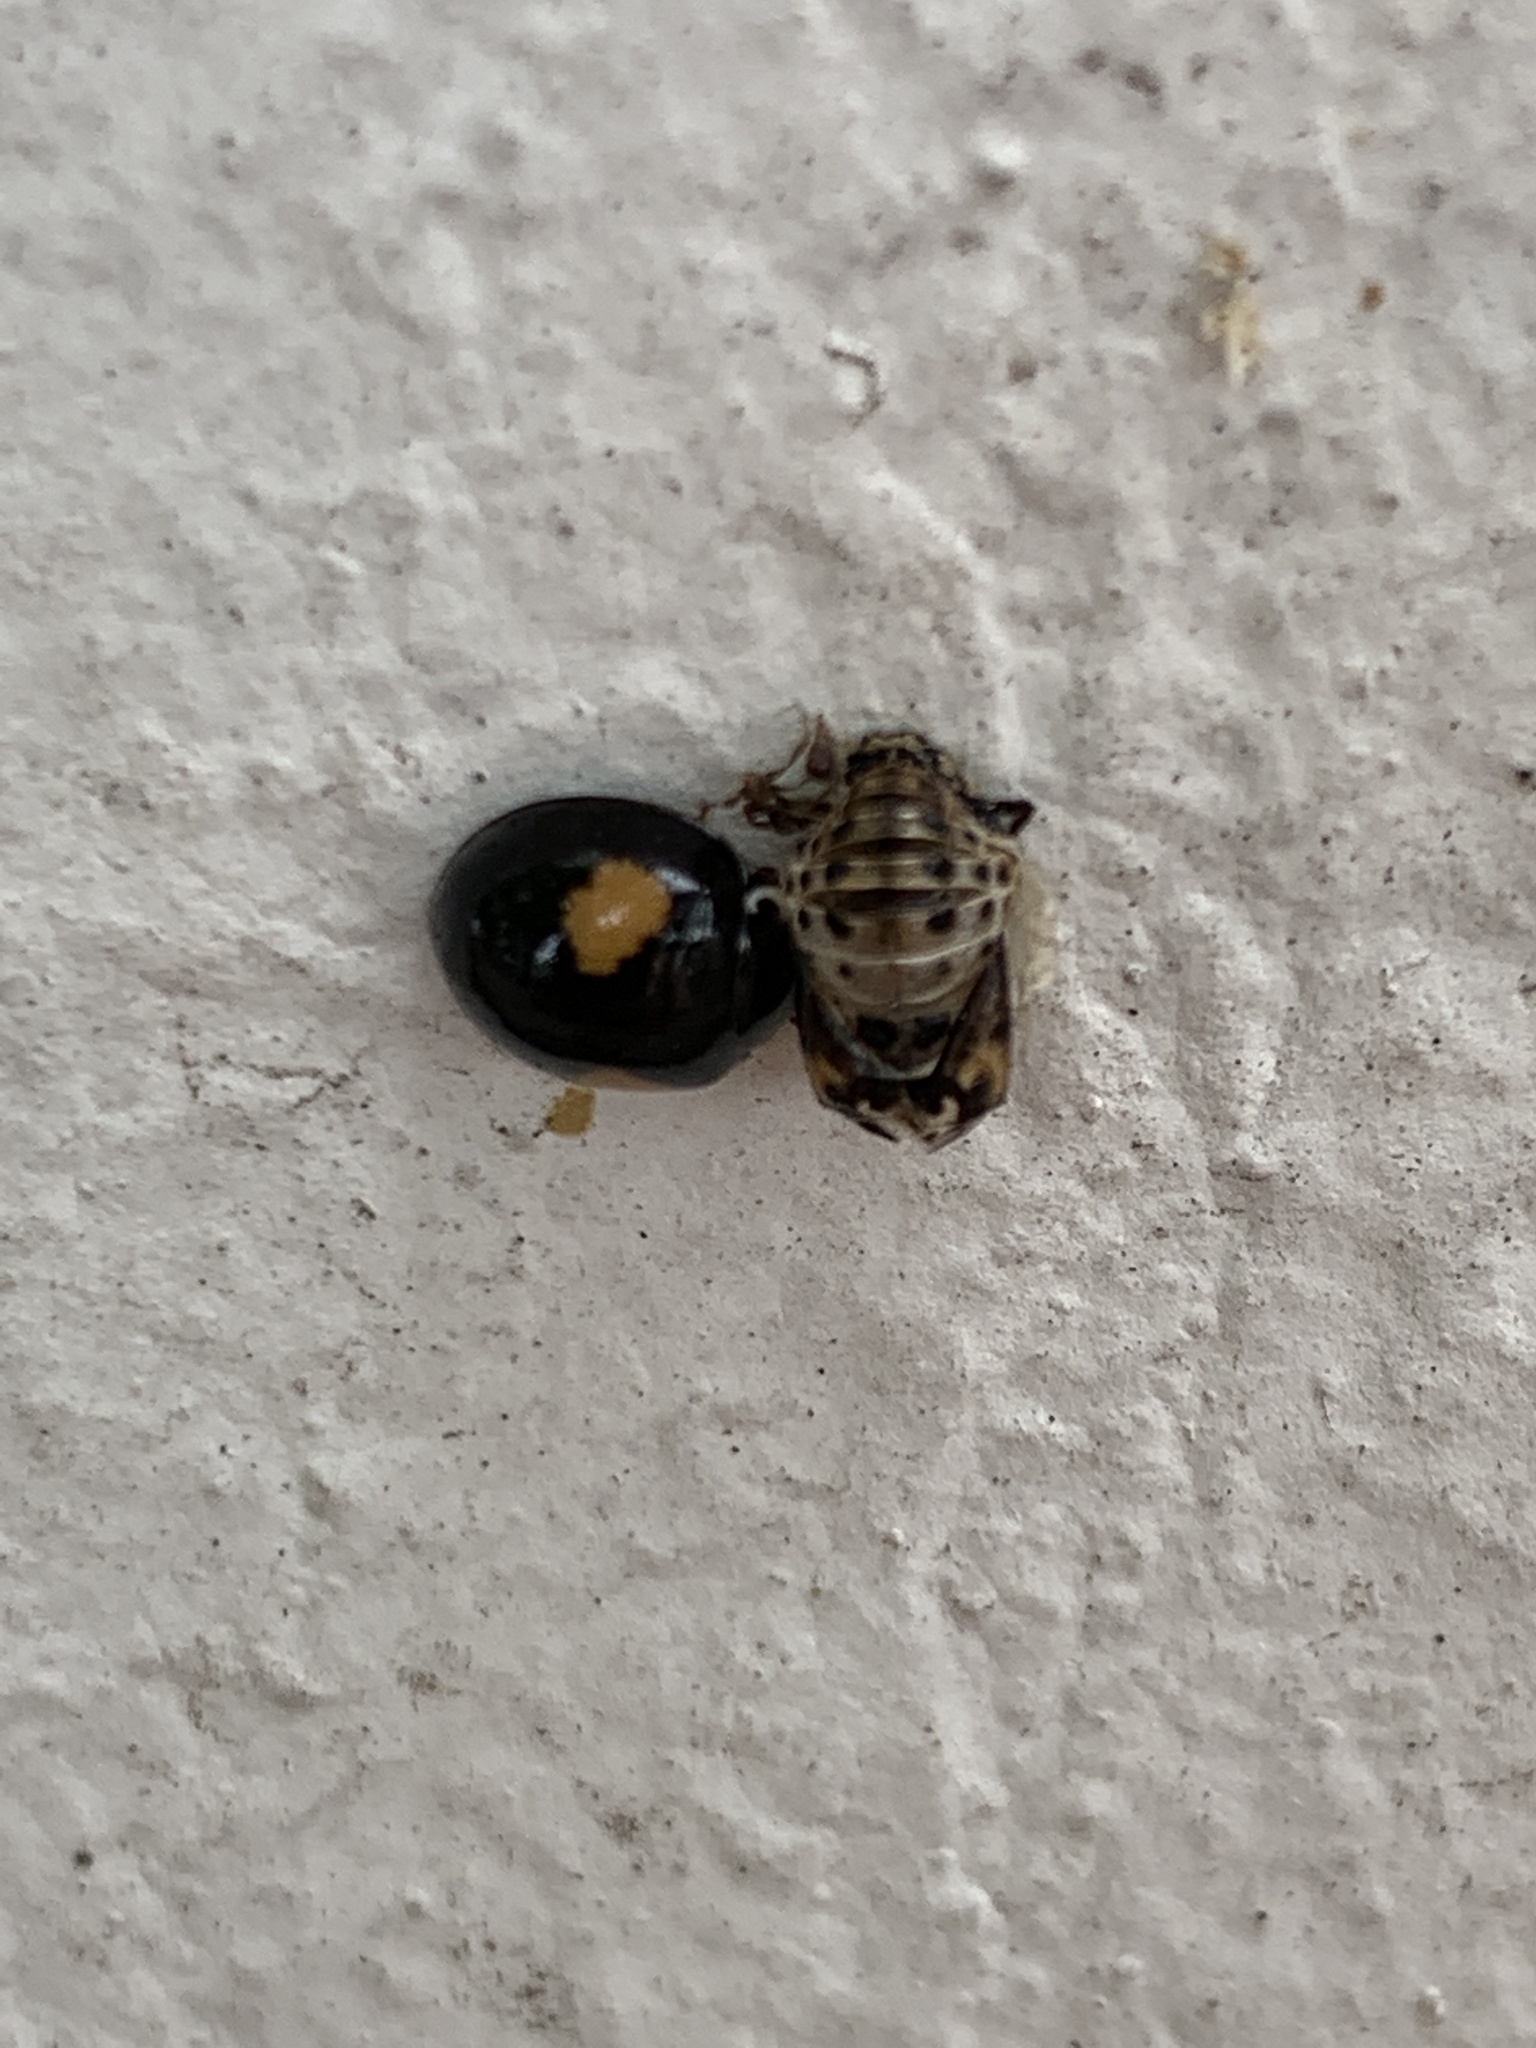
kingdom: Animalia
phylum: Arthropoda
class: Insecta
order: Coleoptera
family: Coccinellidae
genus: Olla
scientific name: Olla v-nigrum
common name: Ashy gray lady beetle
